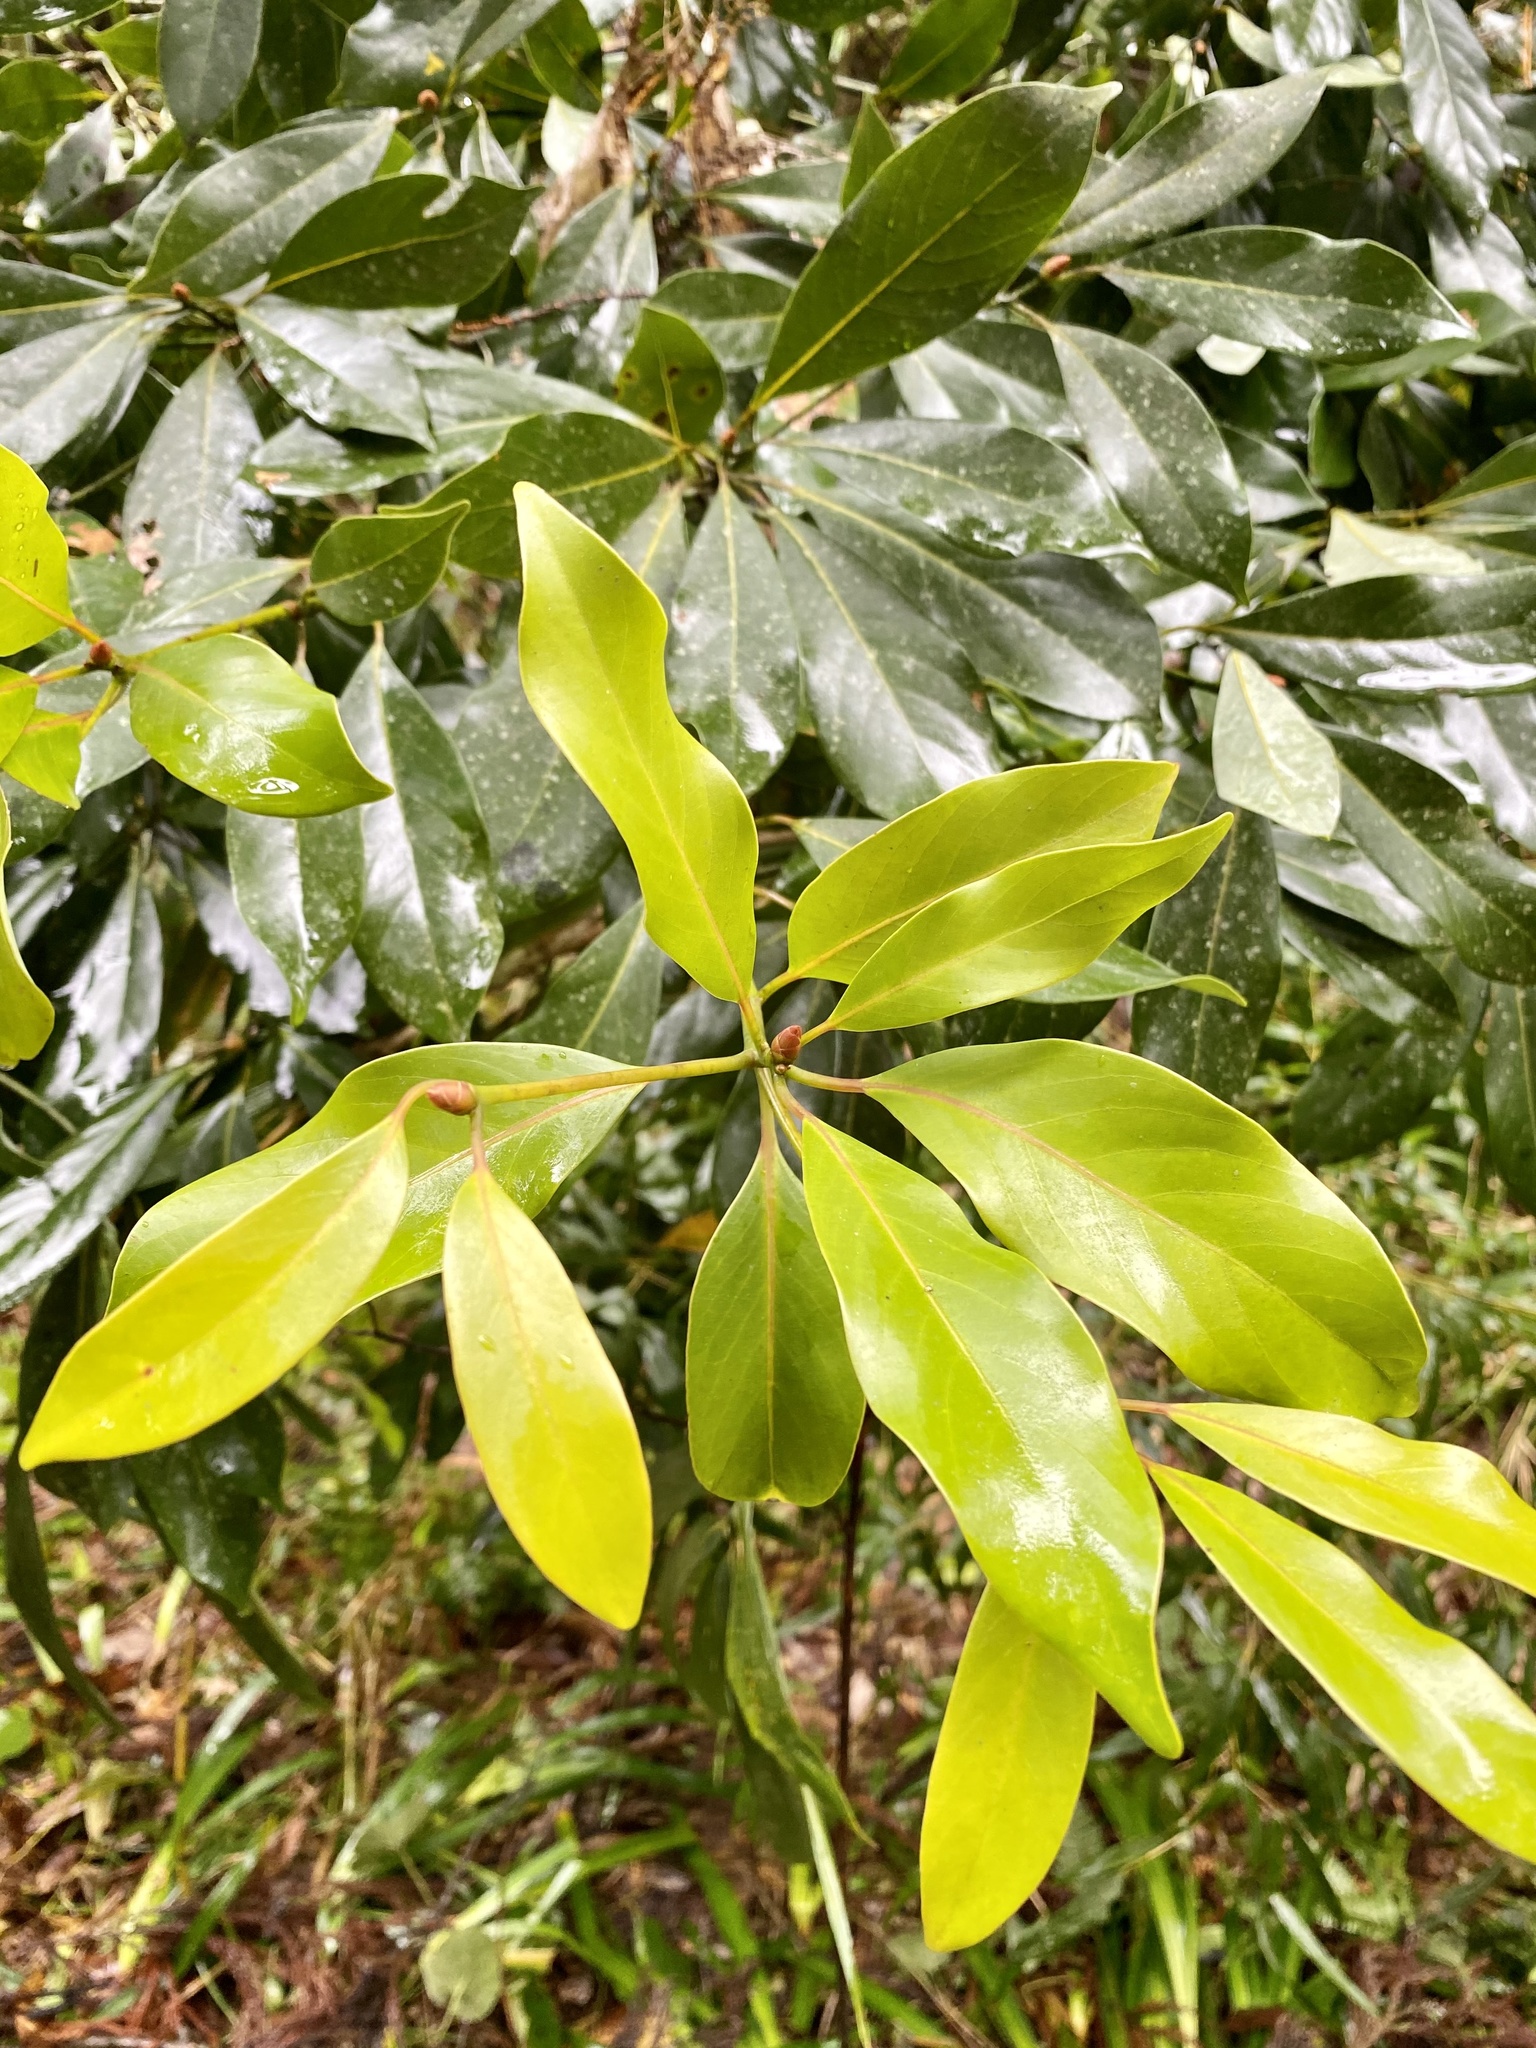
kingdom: Plantae
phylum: Tracheophyta
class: Magnoliopsida
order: Laurales
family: Lauraceae
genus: Machilus
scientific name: Machilus thunbergii
